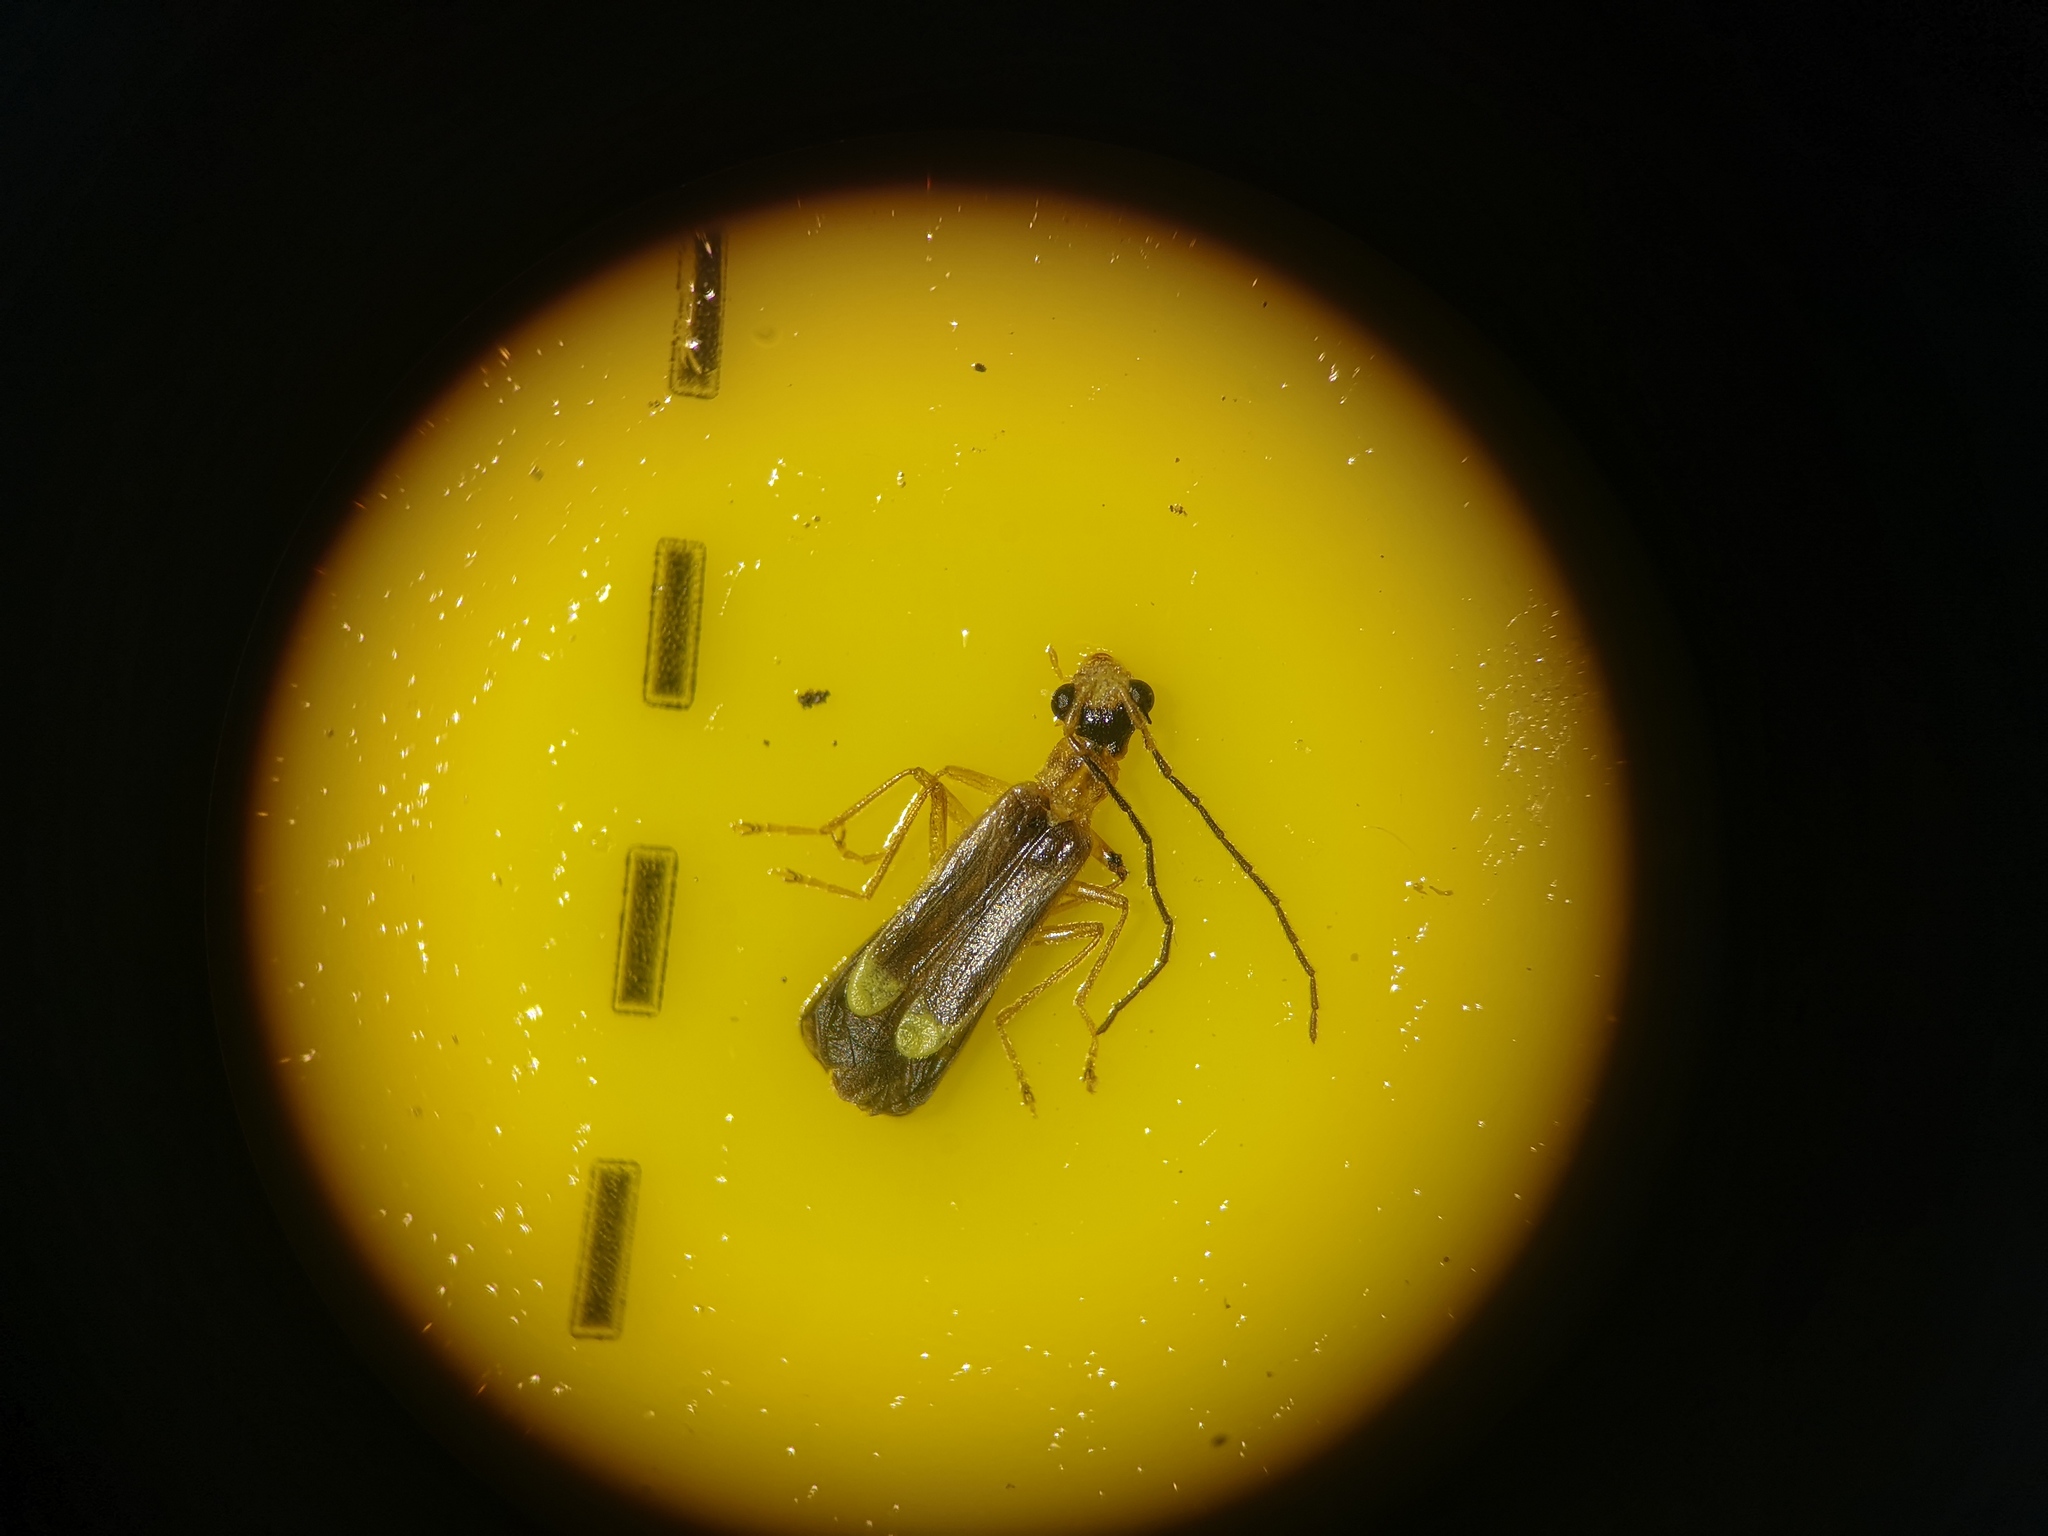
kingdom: Animalia
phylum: Arthropoda
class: Insecta
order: Coleoptera
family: Cantharidae
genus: Malthinus
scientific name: Malthinus flaveolus
